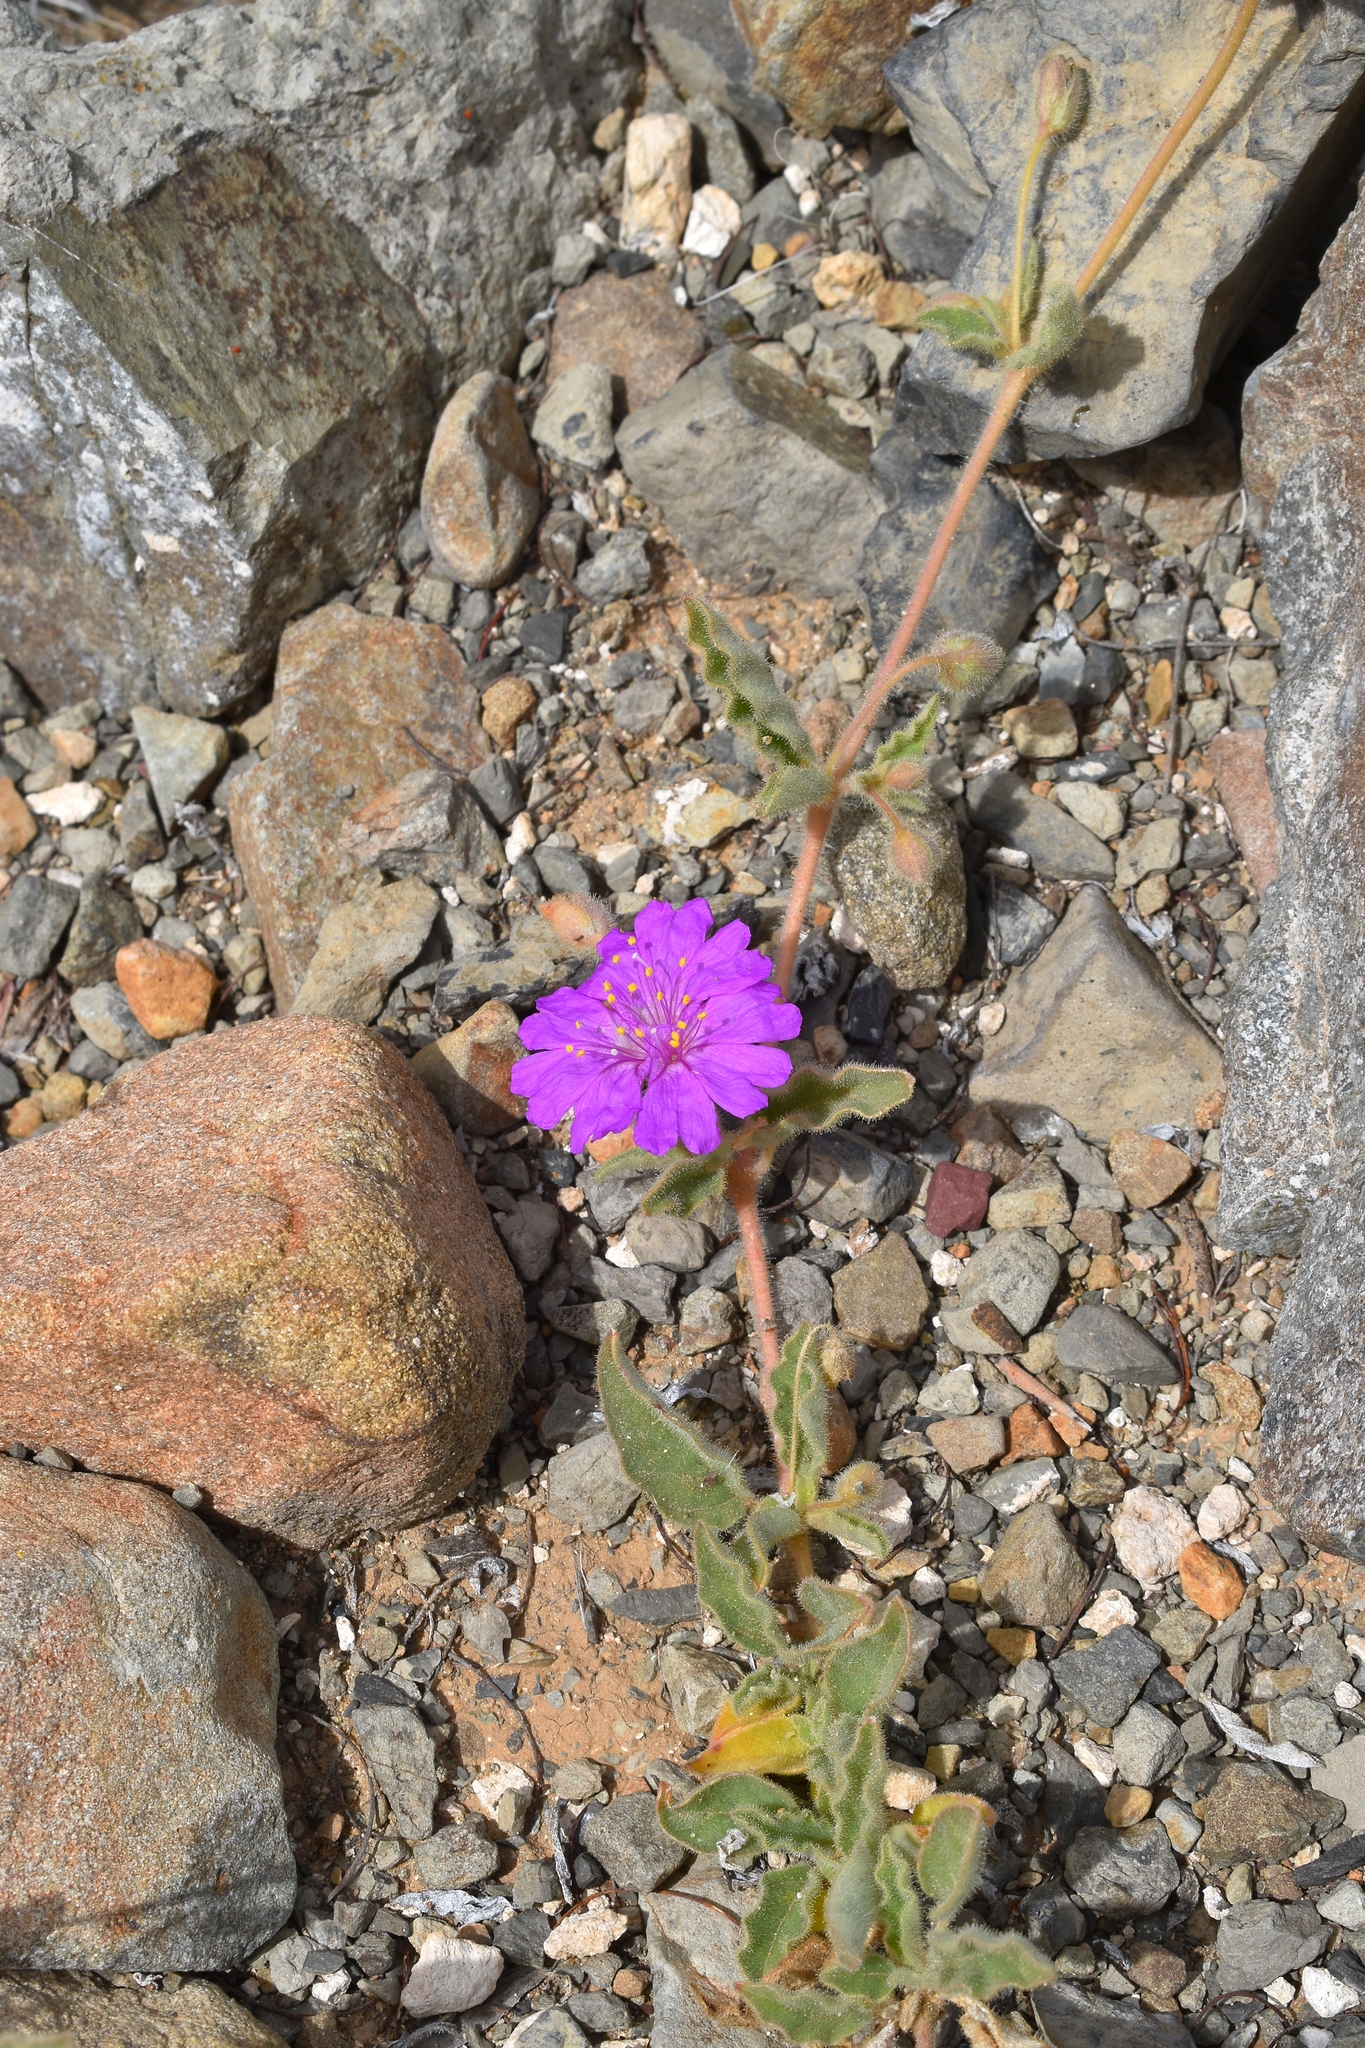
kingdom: Plantae
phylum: Tracheophyta
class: Magnoliopsida
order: Caryophyllales
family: Nyctaginaceae
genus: Allionia
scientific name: Allionia incarnata
